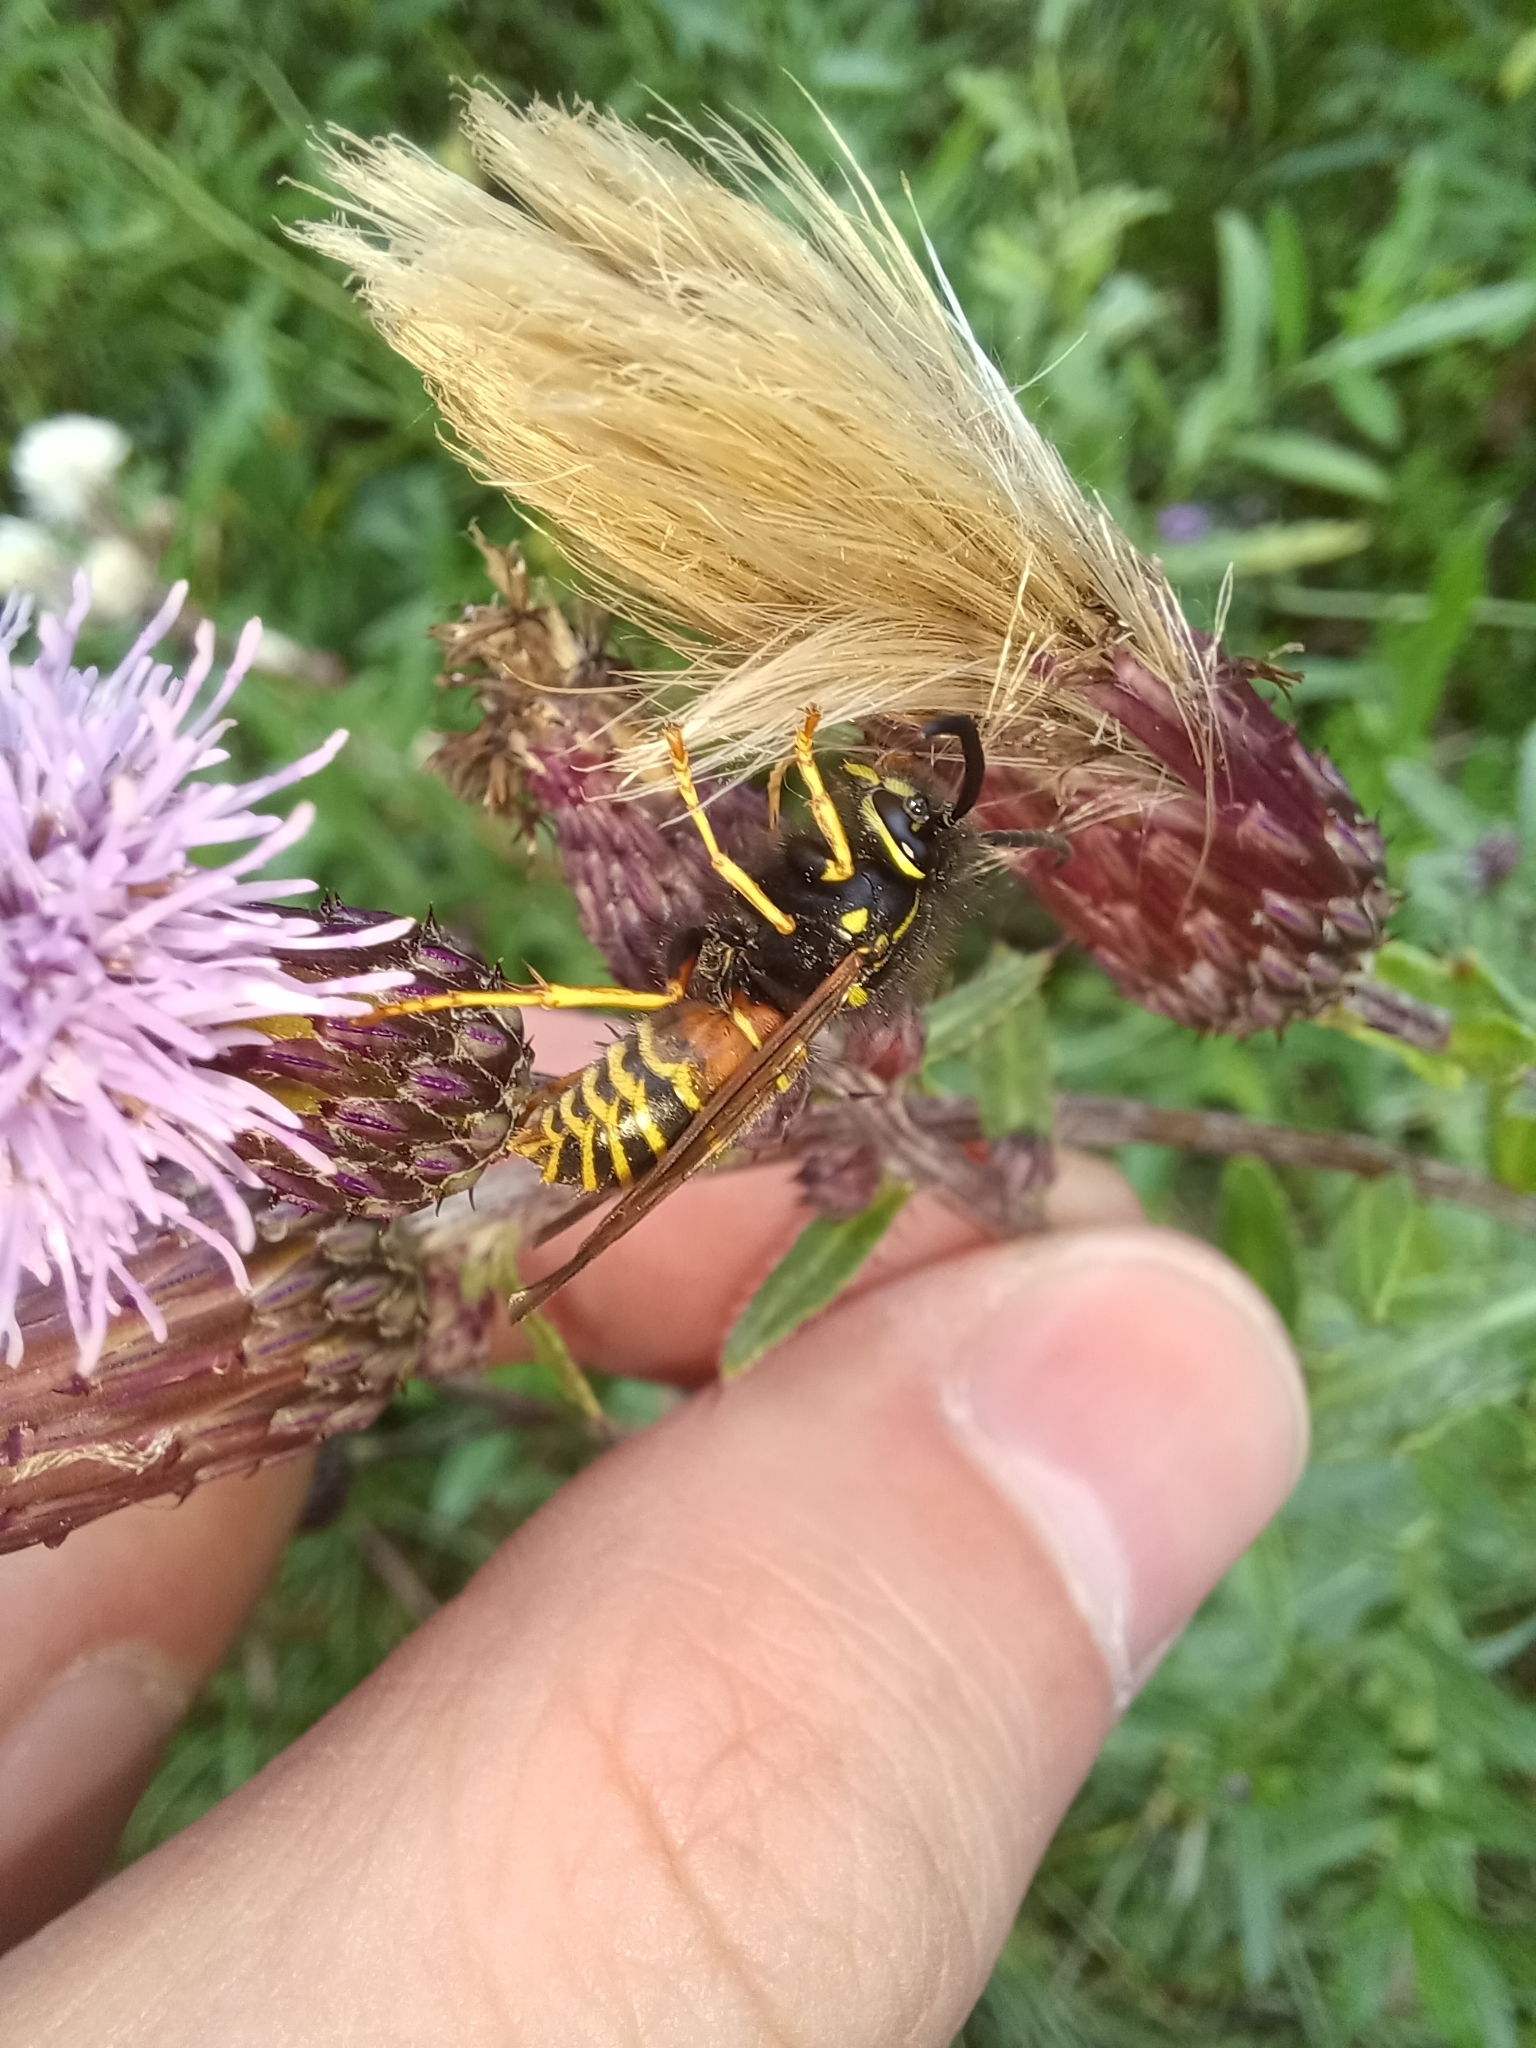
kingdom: Animalia
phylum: Arthropoda
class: Insecta
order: Hymenoptera
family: Vespidae
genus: Vespula
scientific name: Vespula rufa
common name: Red wasp
